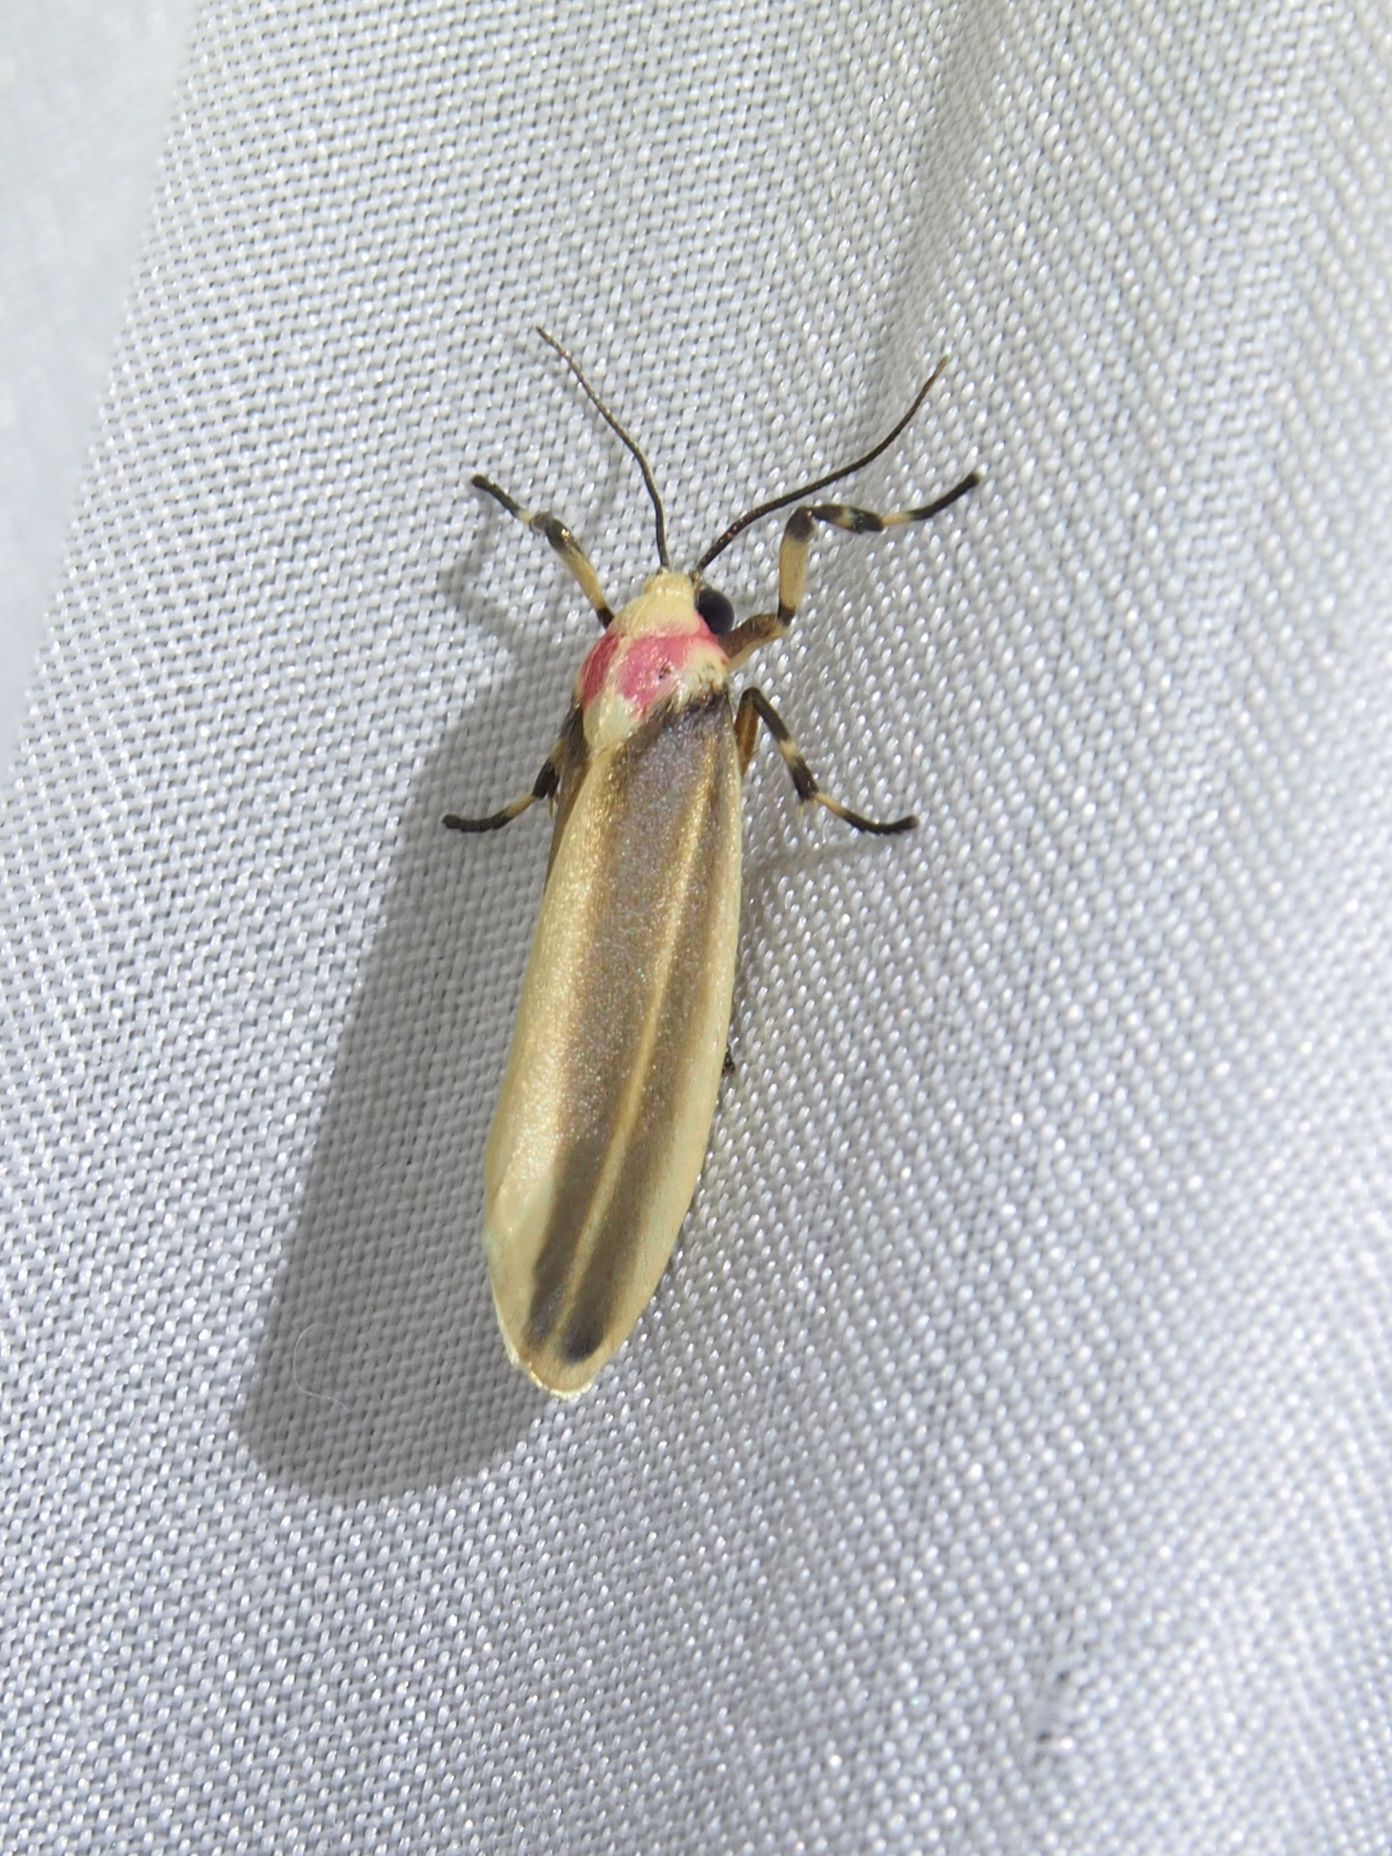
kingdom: Animalia
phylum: Arthropoda
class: Insecta
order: Lepidoptera
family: Erebidae
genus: Rhabdatomis
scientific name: Rhabdatomis laudamia
